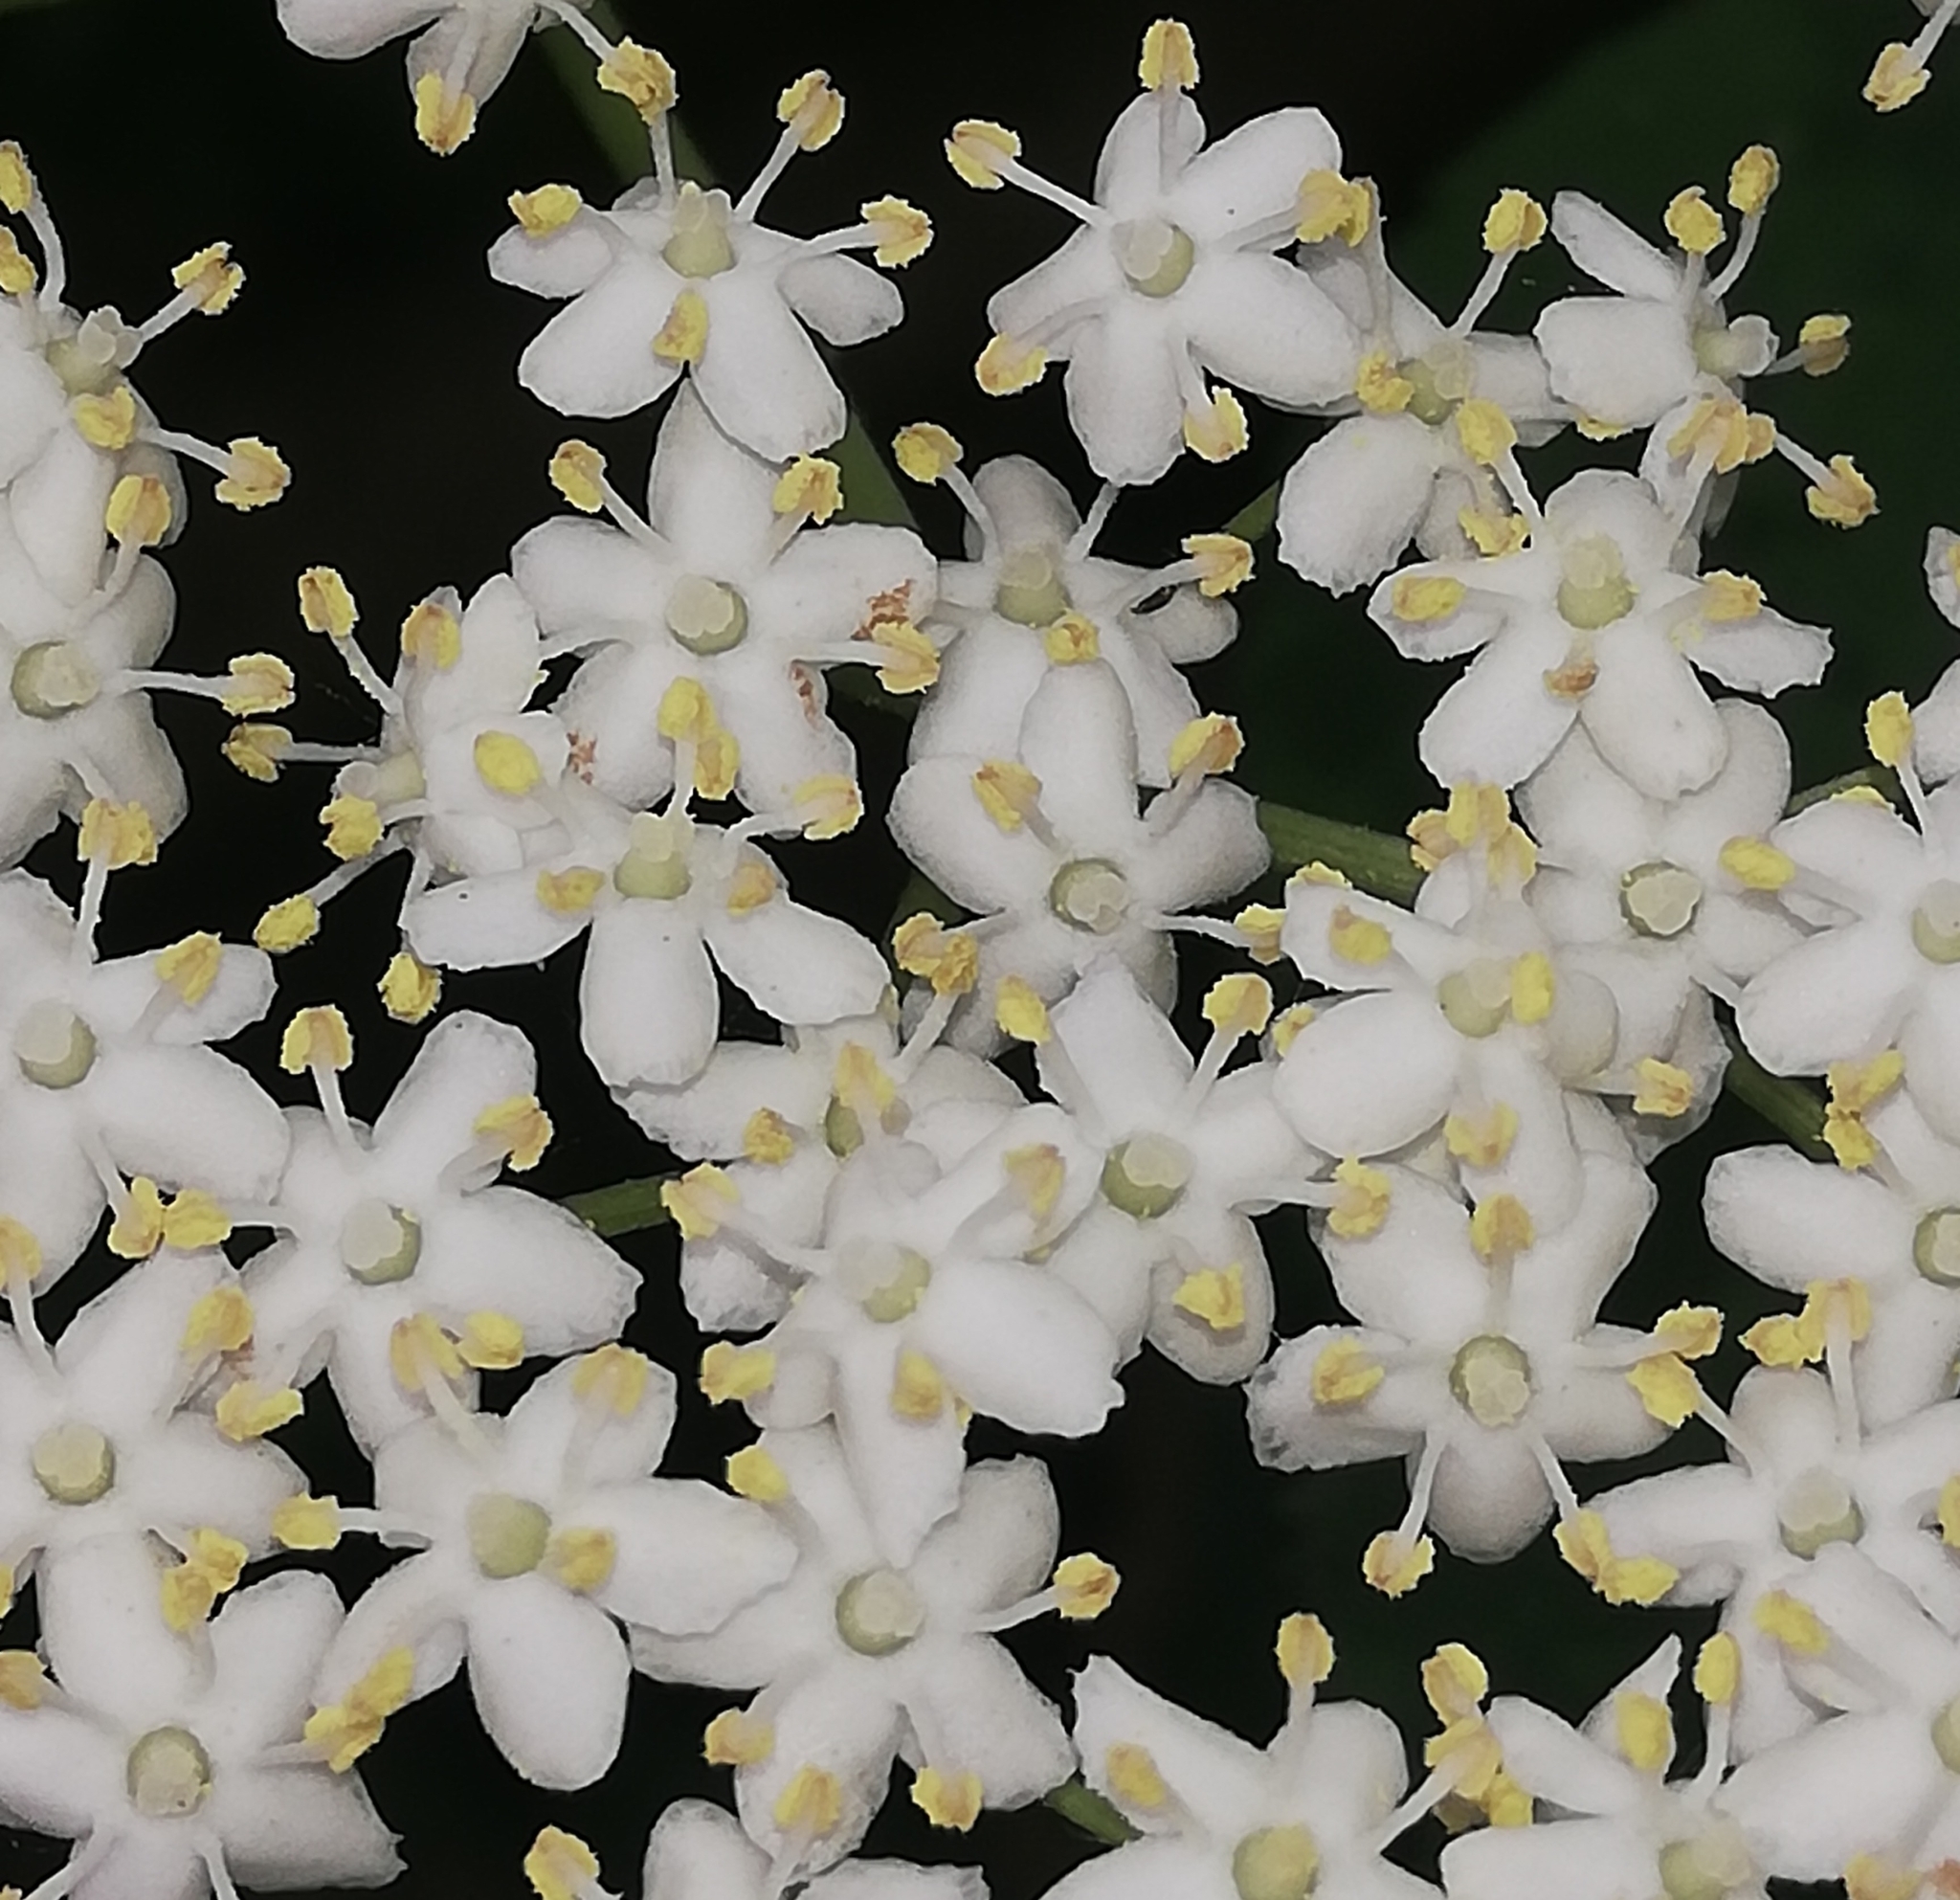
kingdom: Plantae
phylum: Tracheophyta
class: Magnoliopsida
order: Dipsacales
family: Viburnaceae
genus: Sambucus
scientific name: Sambucus nigra
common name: Elder
